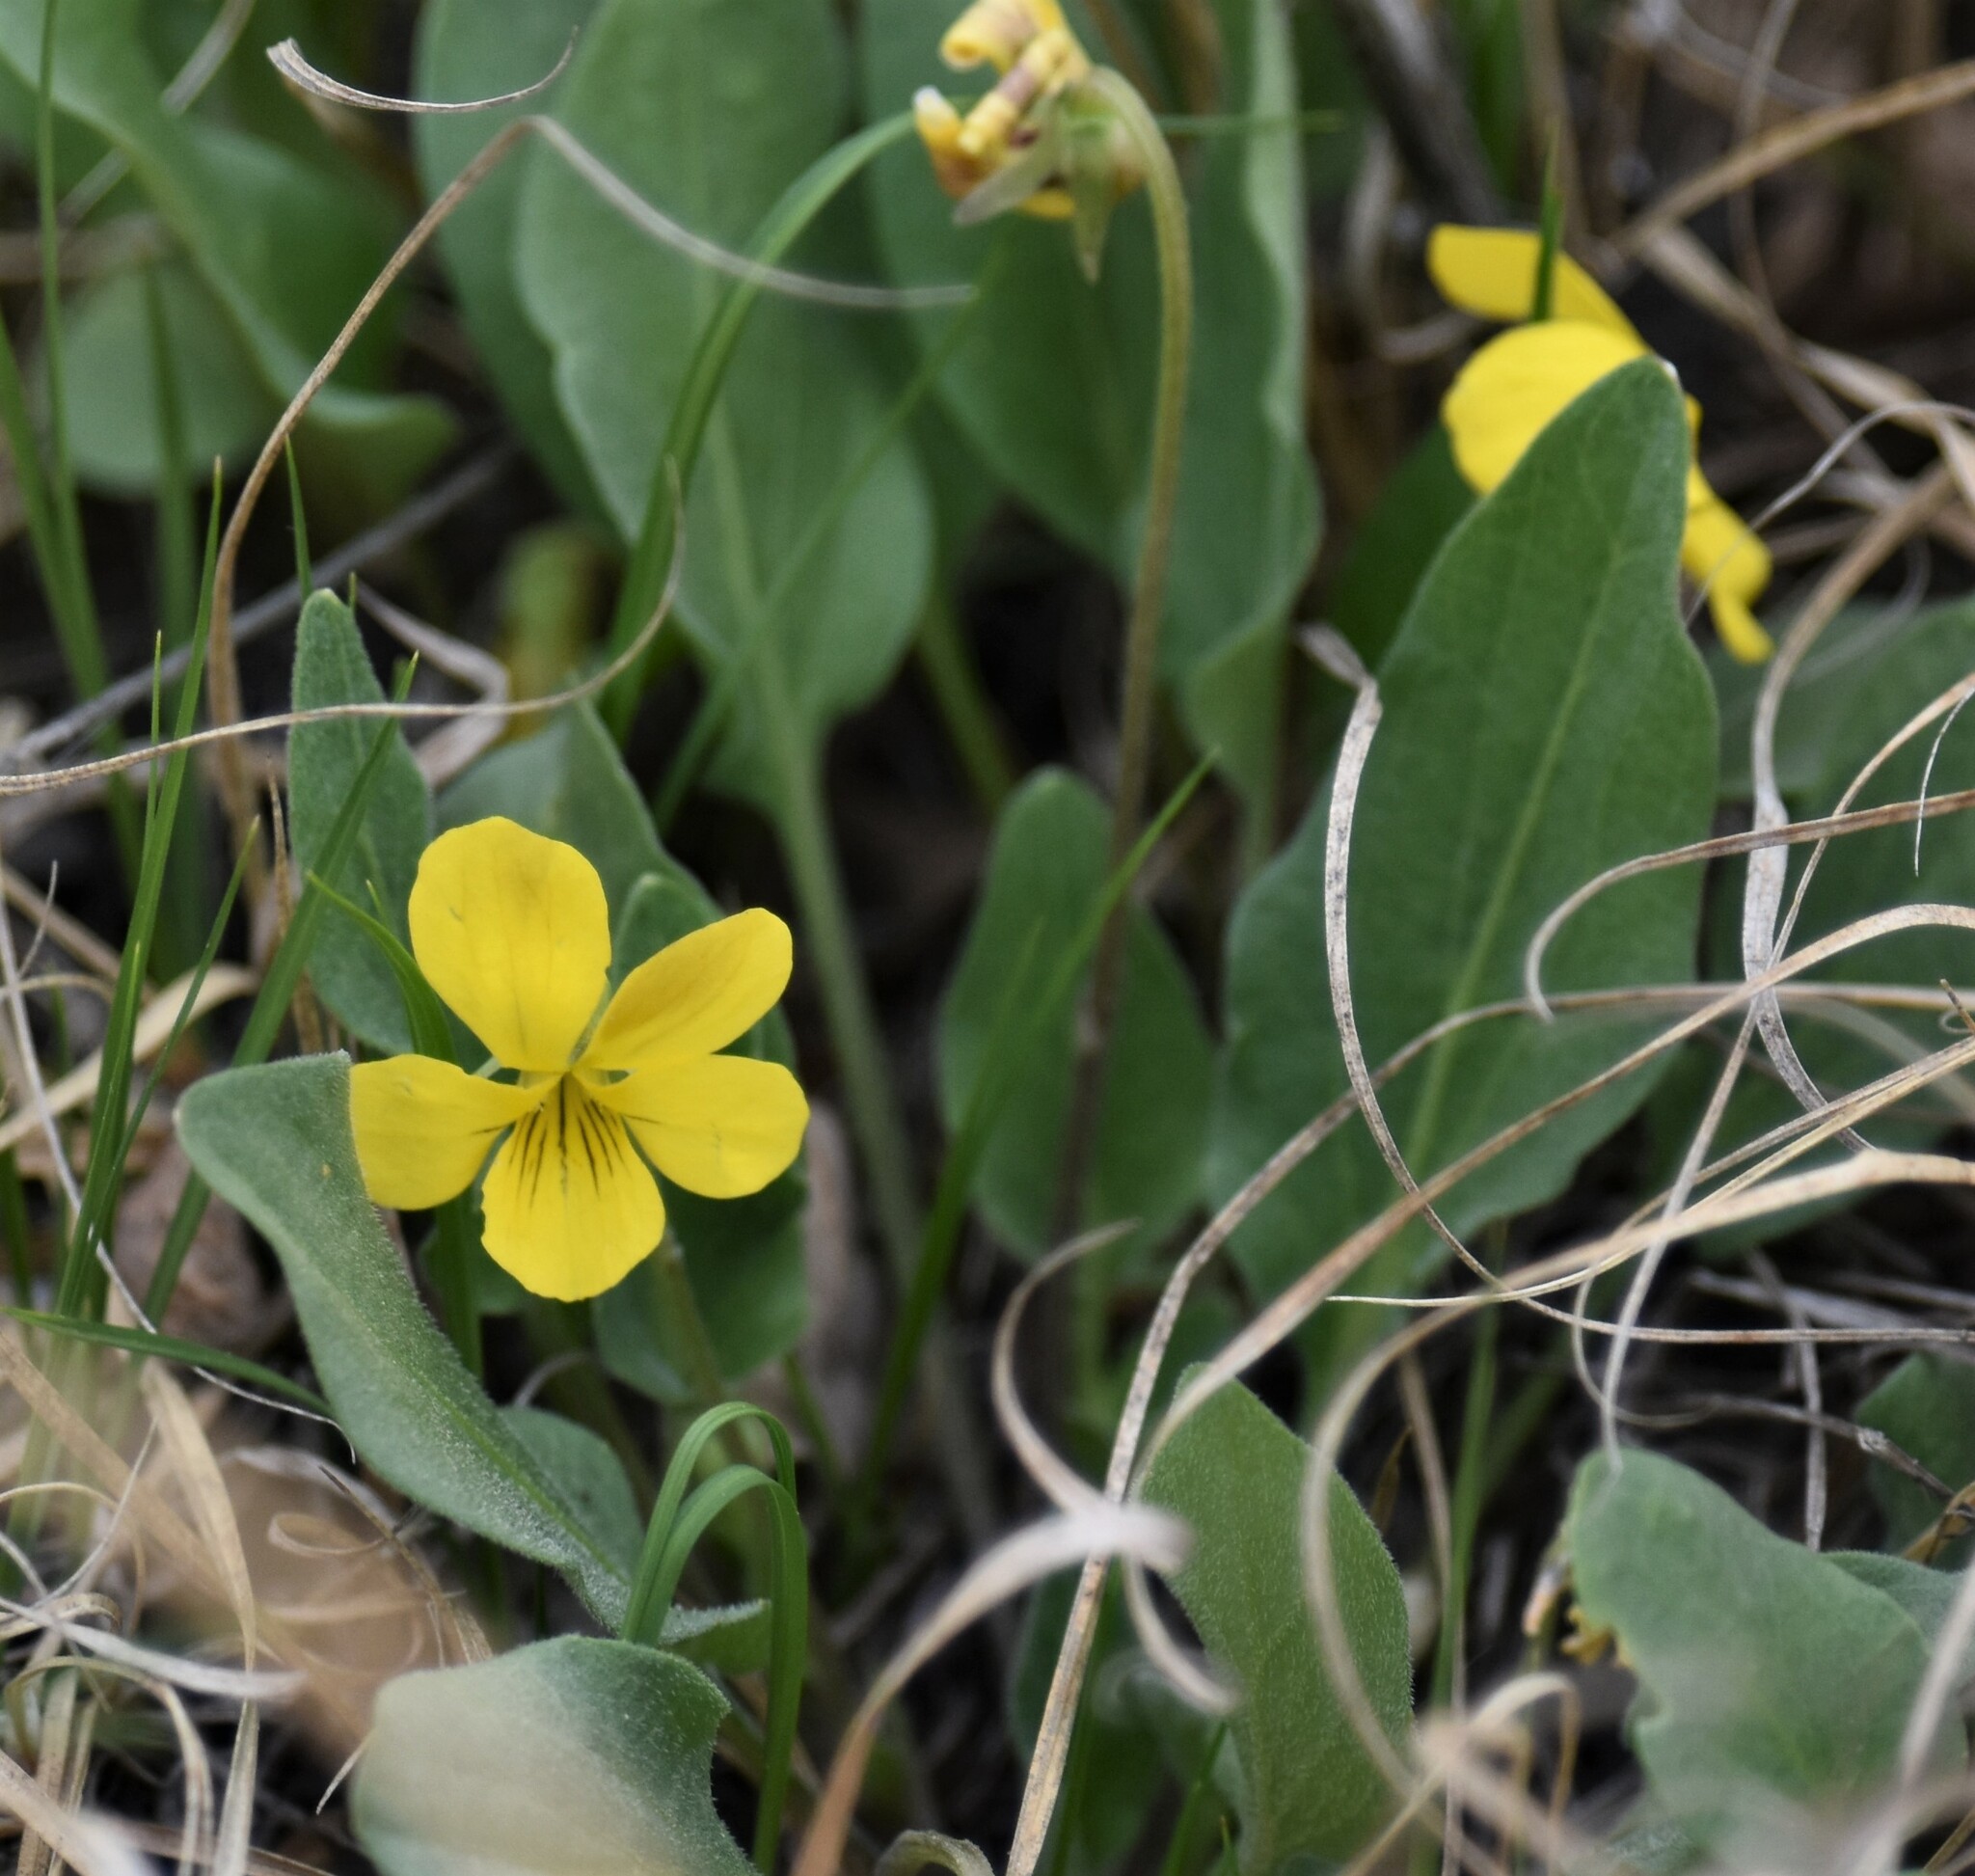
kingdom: Plantae
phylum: Tracheophyta
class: Magnoliopsida
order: Malpighiales
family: Violaceae
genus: Viola
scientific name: Viola nuttallii
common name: Yellow prairie violet
